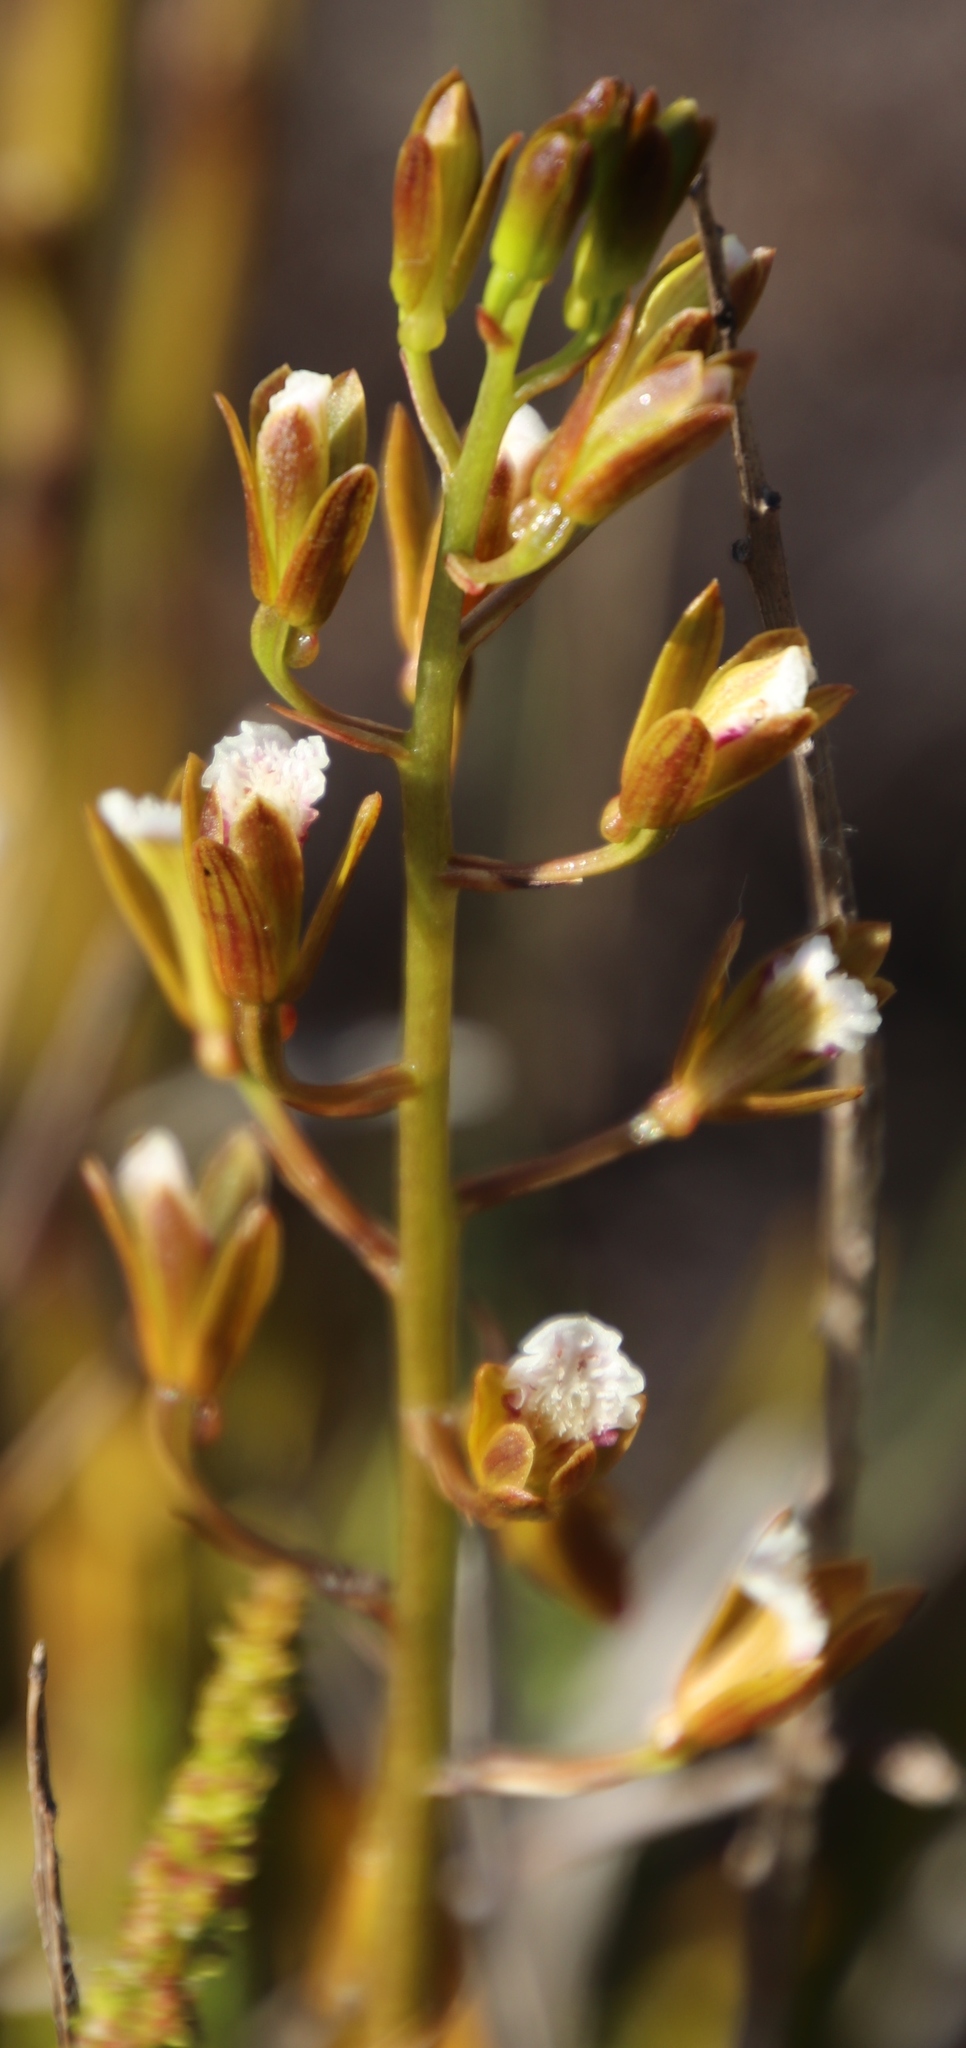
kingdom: Plantae
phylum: Tracheophyta
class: Liliopsida
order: Asparagales
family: Orchidaceae
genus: Eulophia
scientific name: Eulophia lamellata
